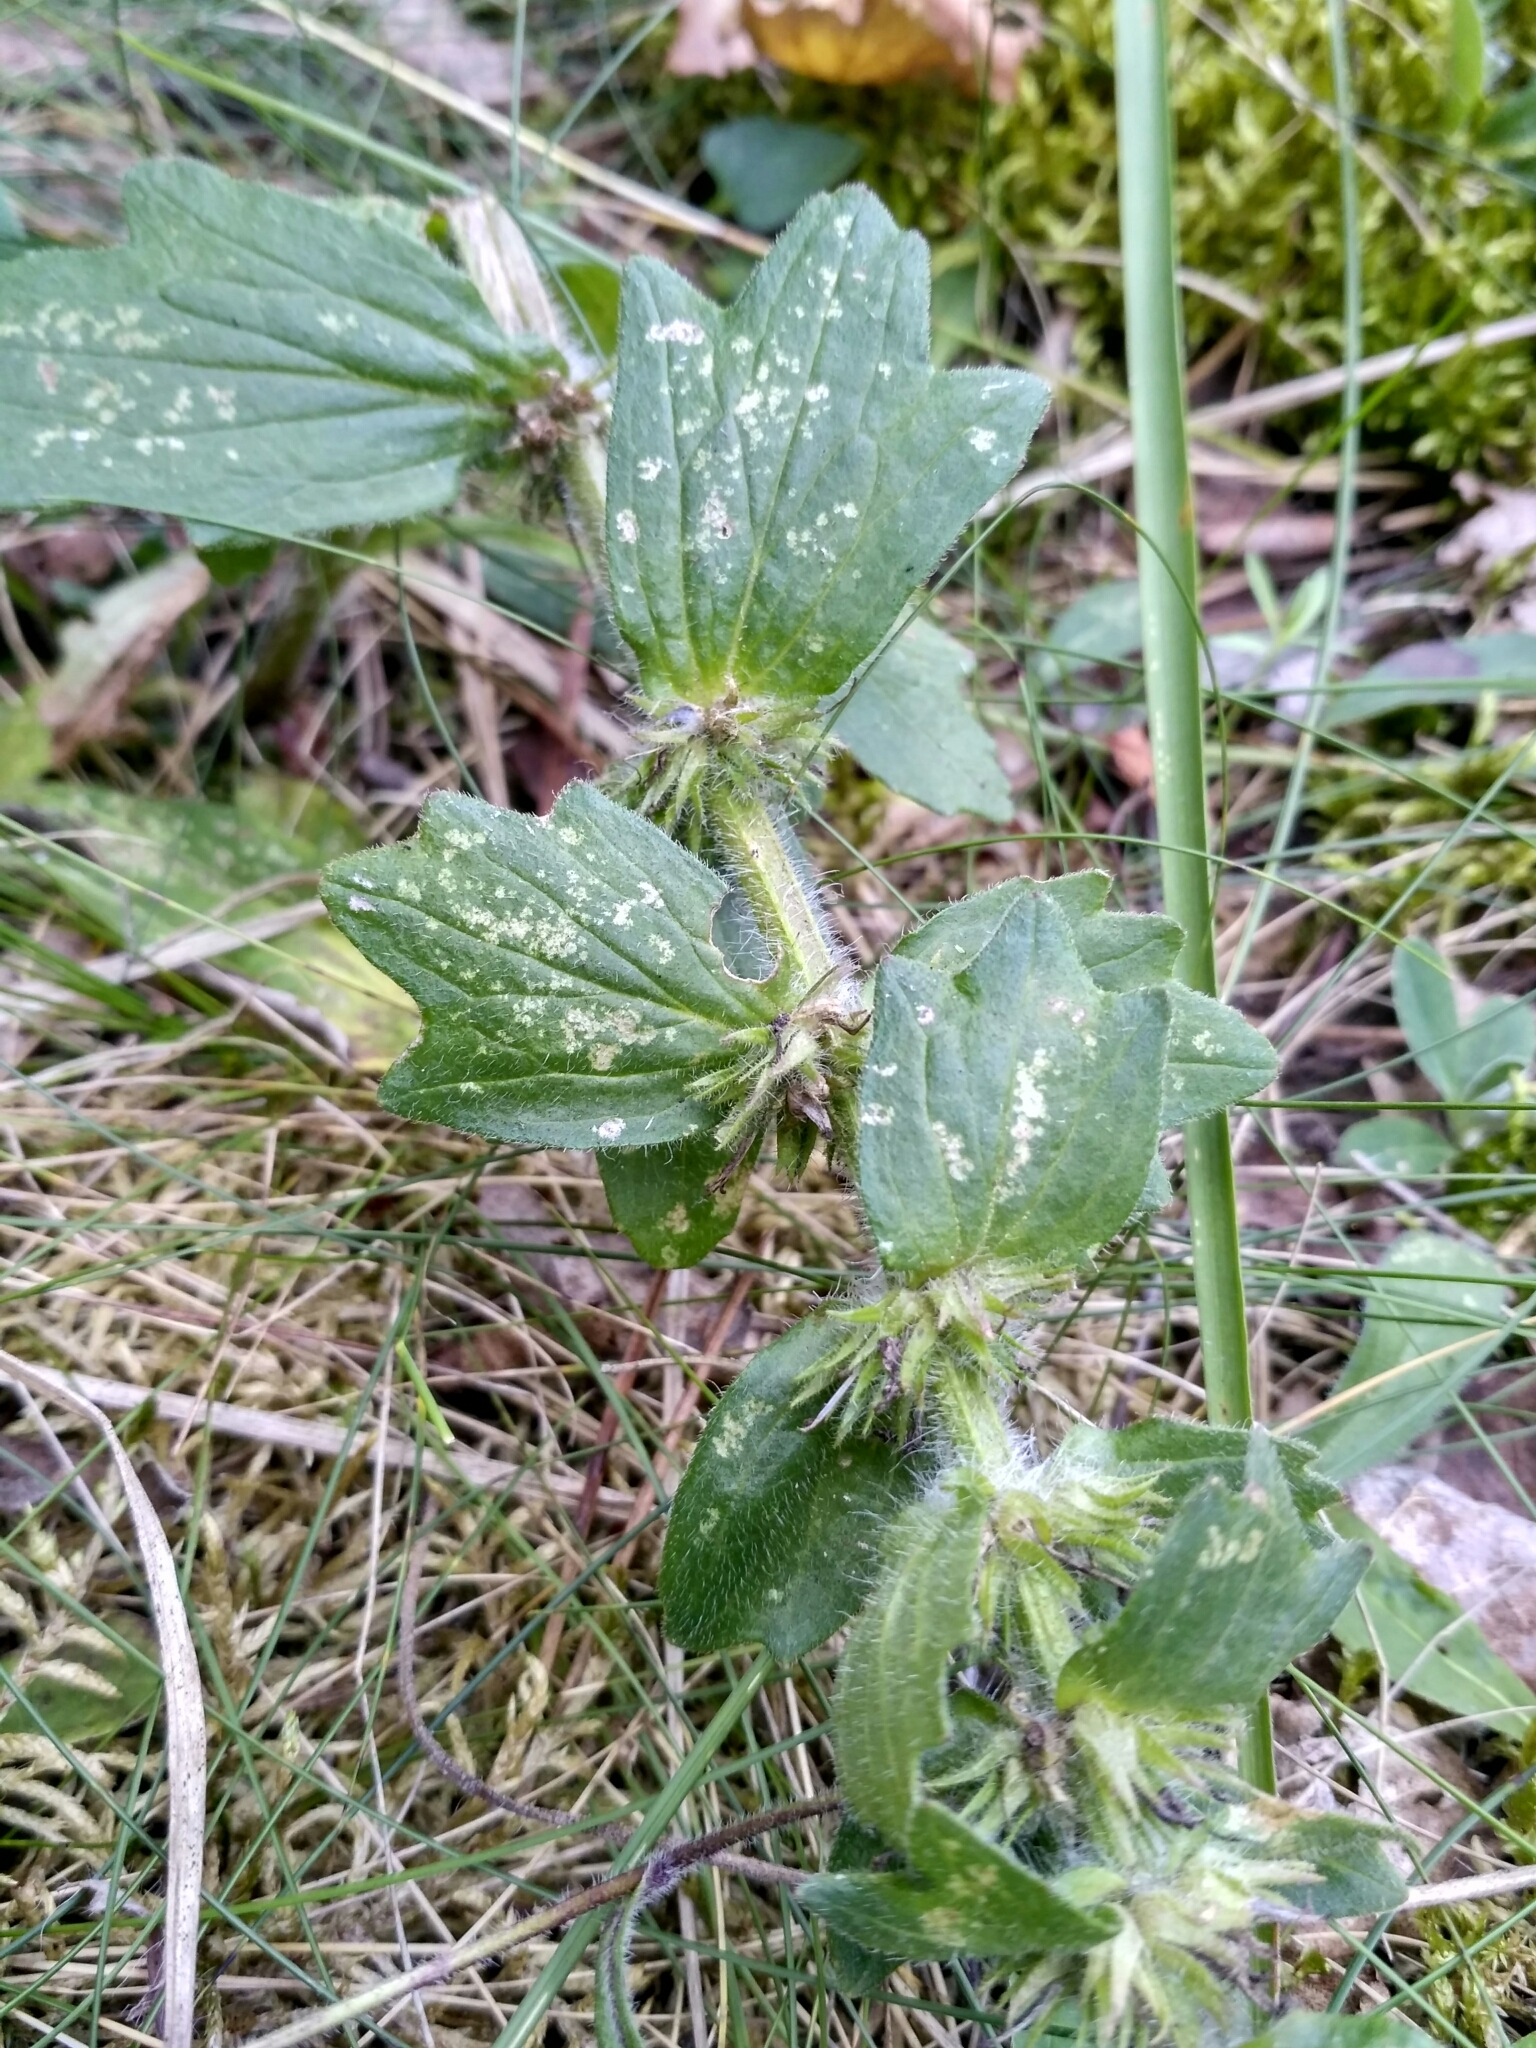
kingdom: Plantae
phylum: Tracheophyta
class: Magnoliopsida
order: Lamiales
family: Lamiaceae
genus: Ajuga
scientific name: Ajuga genevensis
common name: Blue bugle
